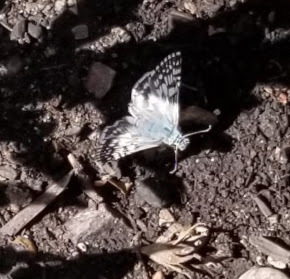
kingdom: Animalia
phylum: Arthropoda
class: Insecta
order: Lepidoptera
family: Hesperiidae
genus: Burnsius
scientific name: Burnsius communis
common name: Common checkered-skipper
